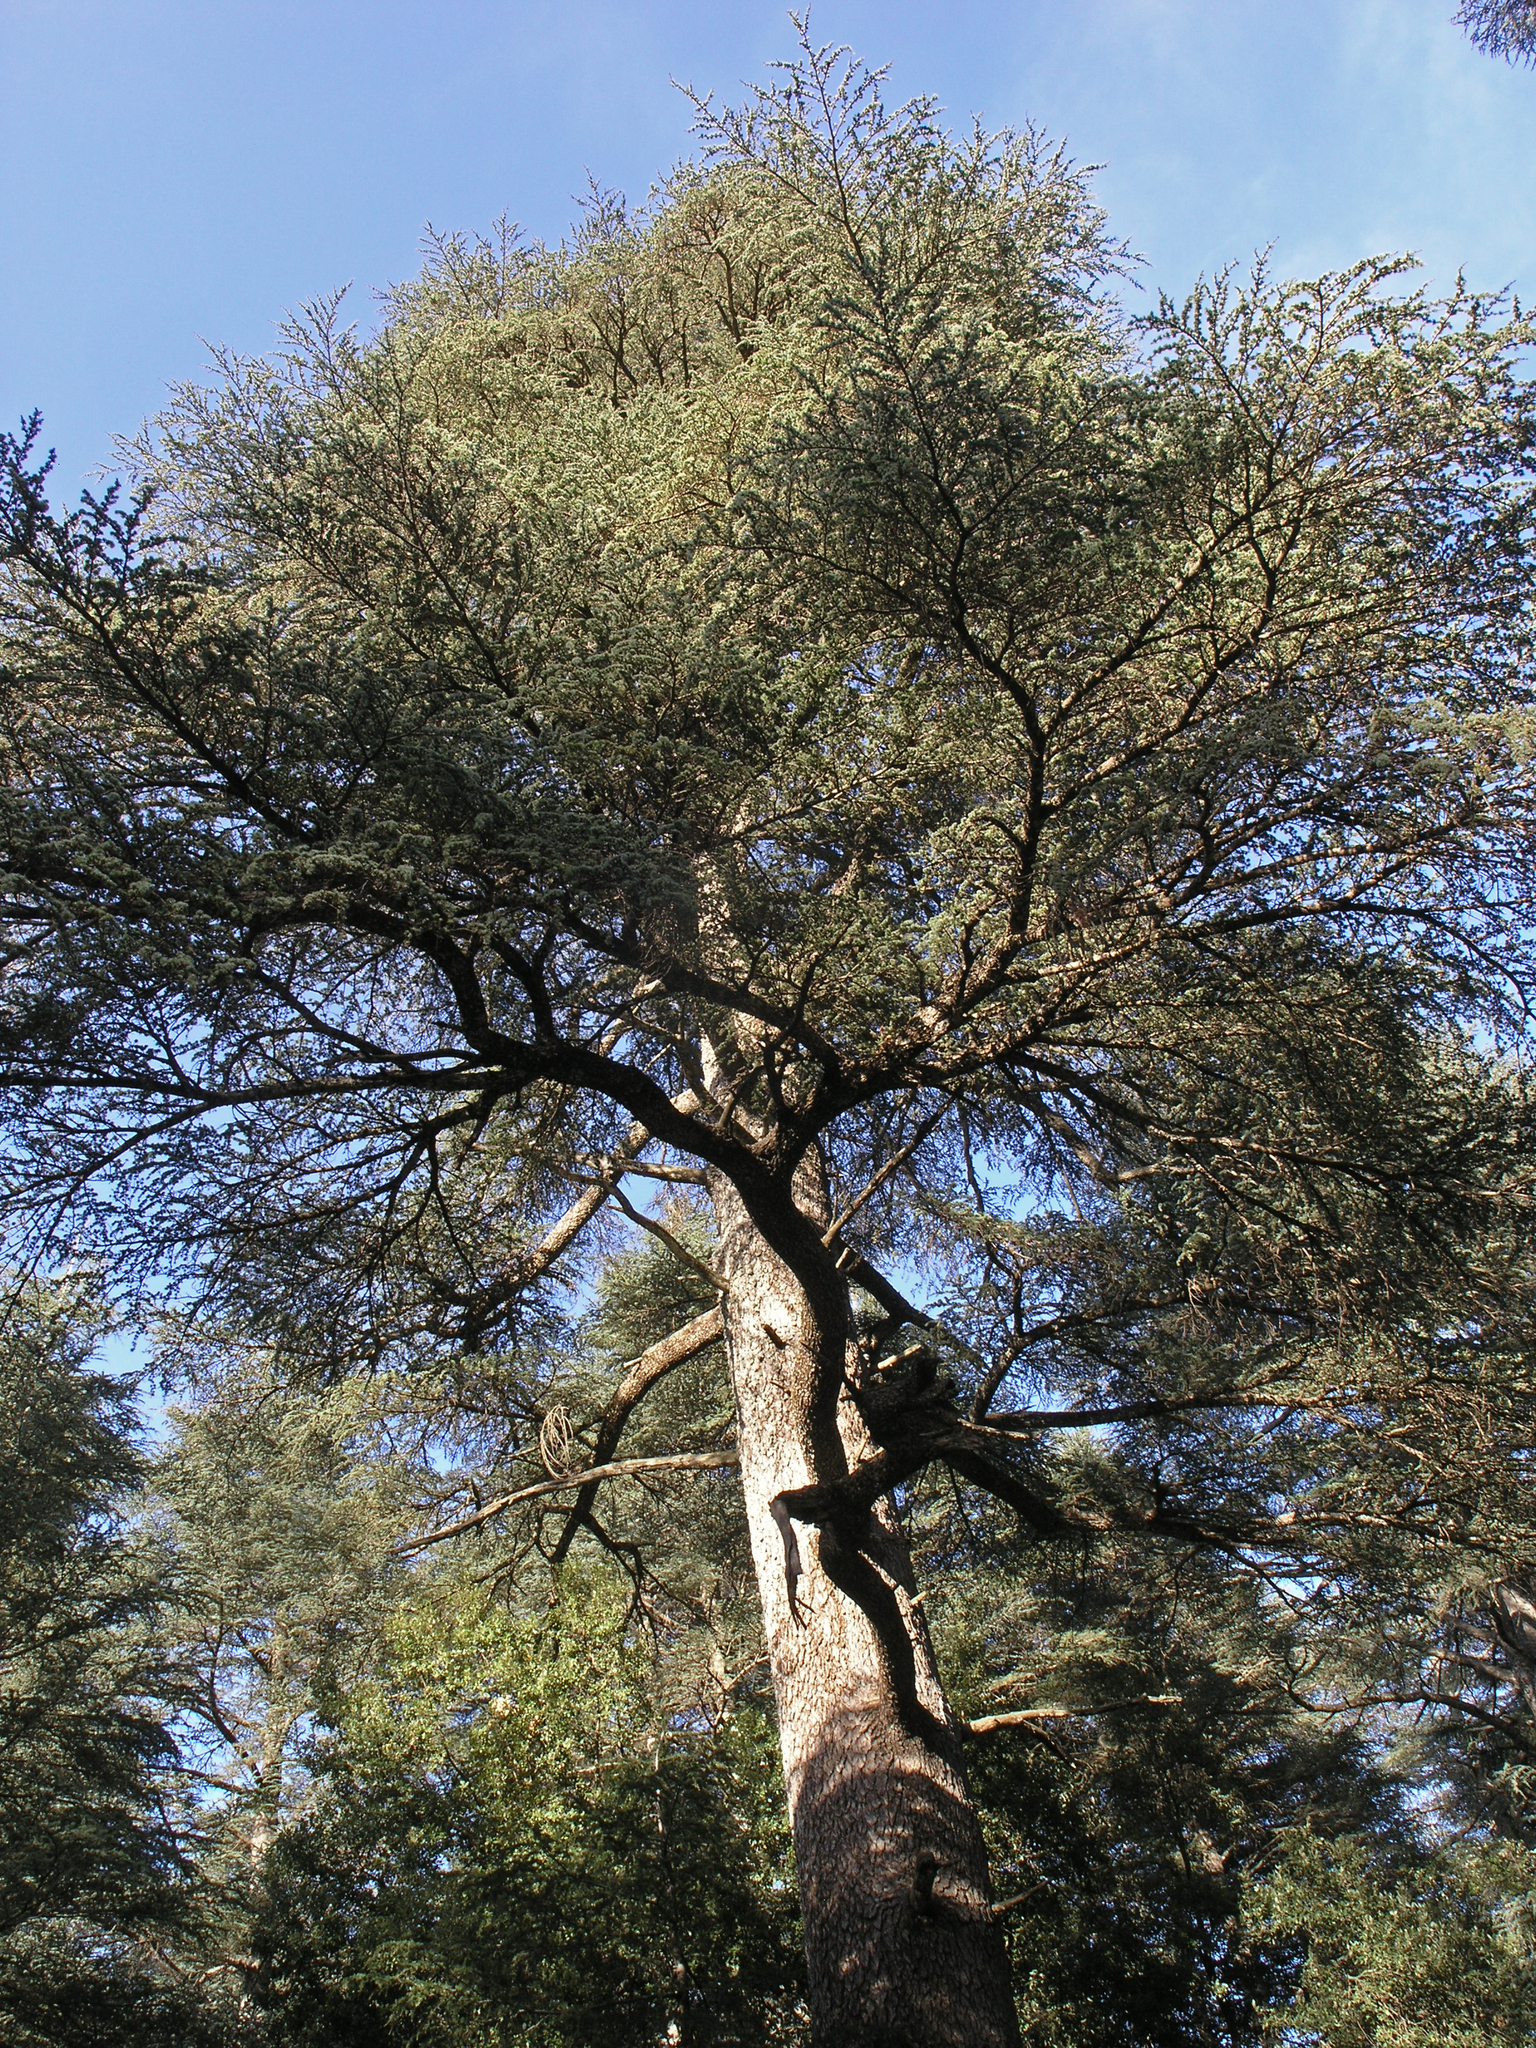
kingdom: Plantae
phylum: Tracheophyta
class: Pinopsida
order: Pinales
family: Pinaceae
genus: Cedrus
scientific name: Cedrus atlantica
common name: Atlas cedar
